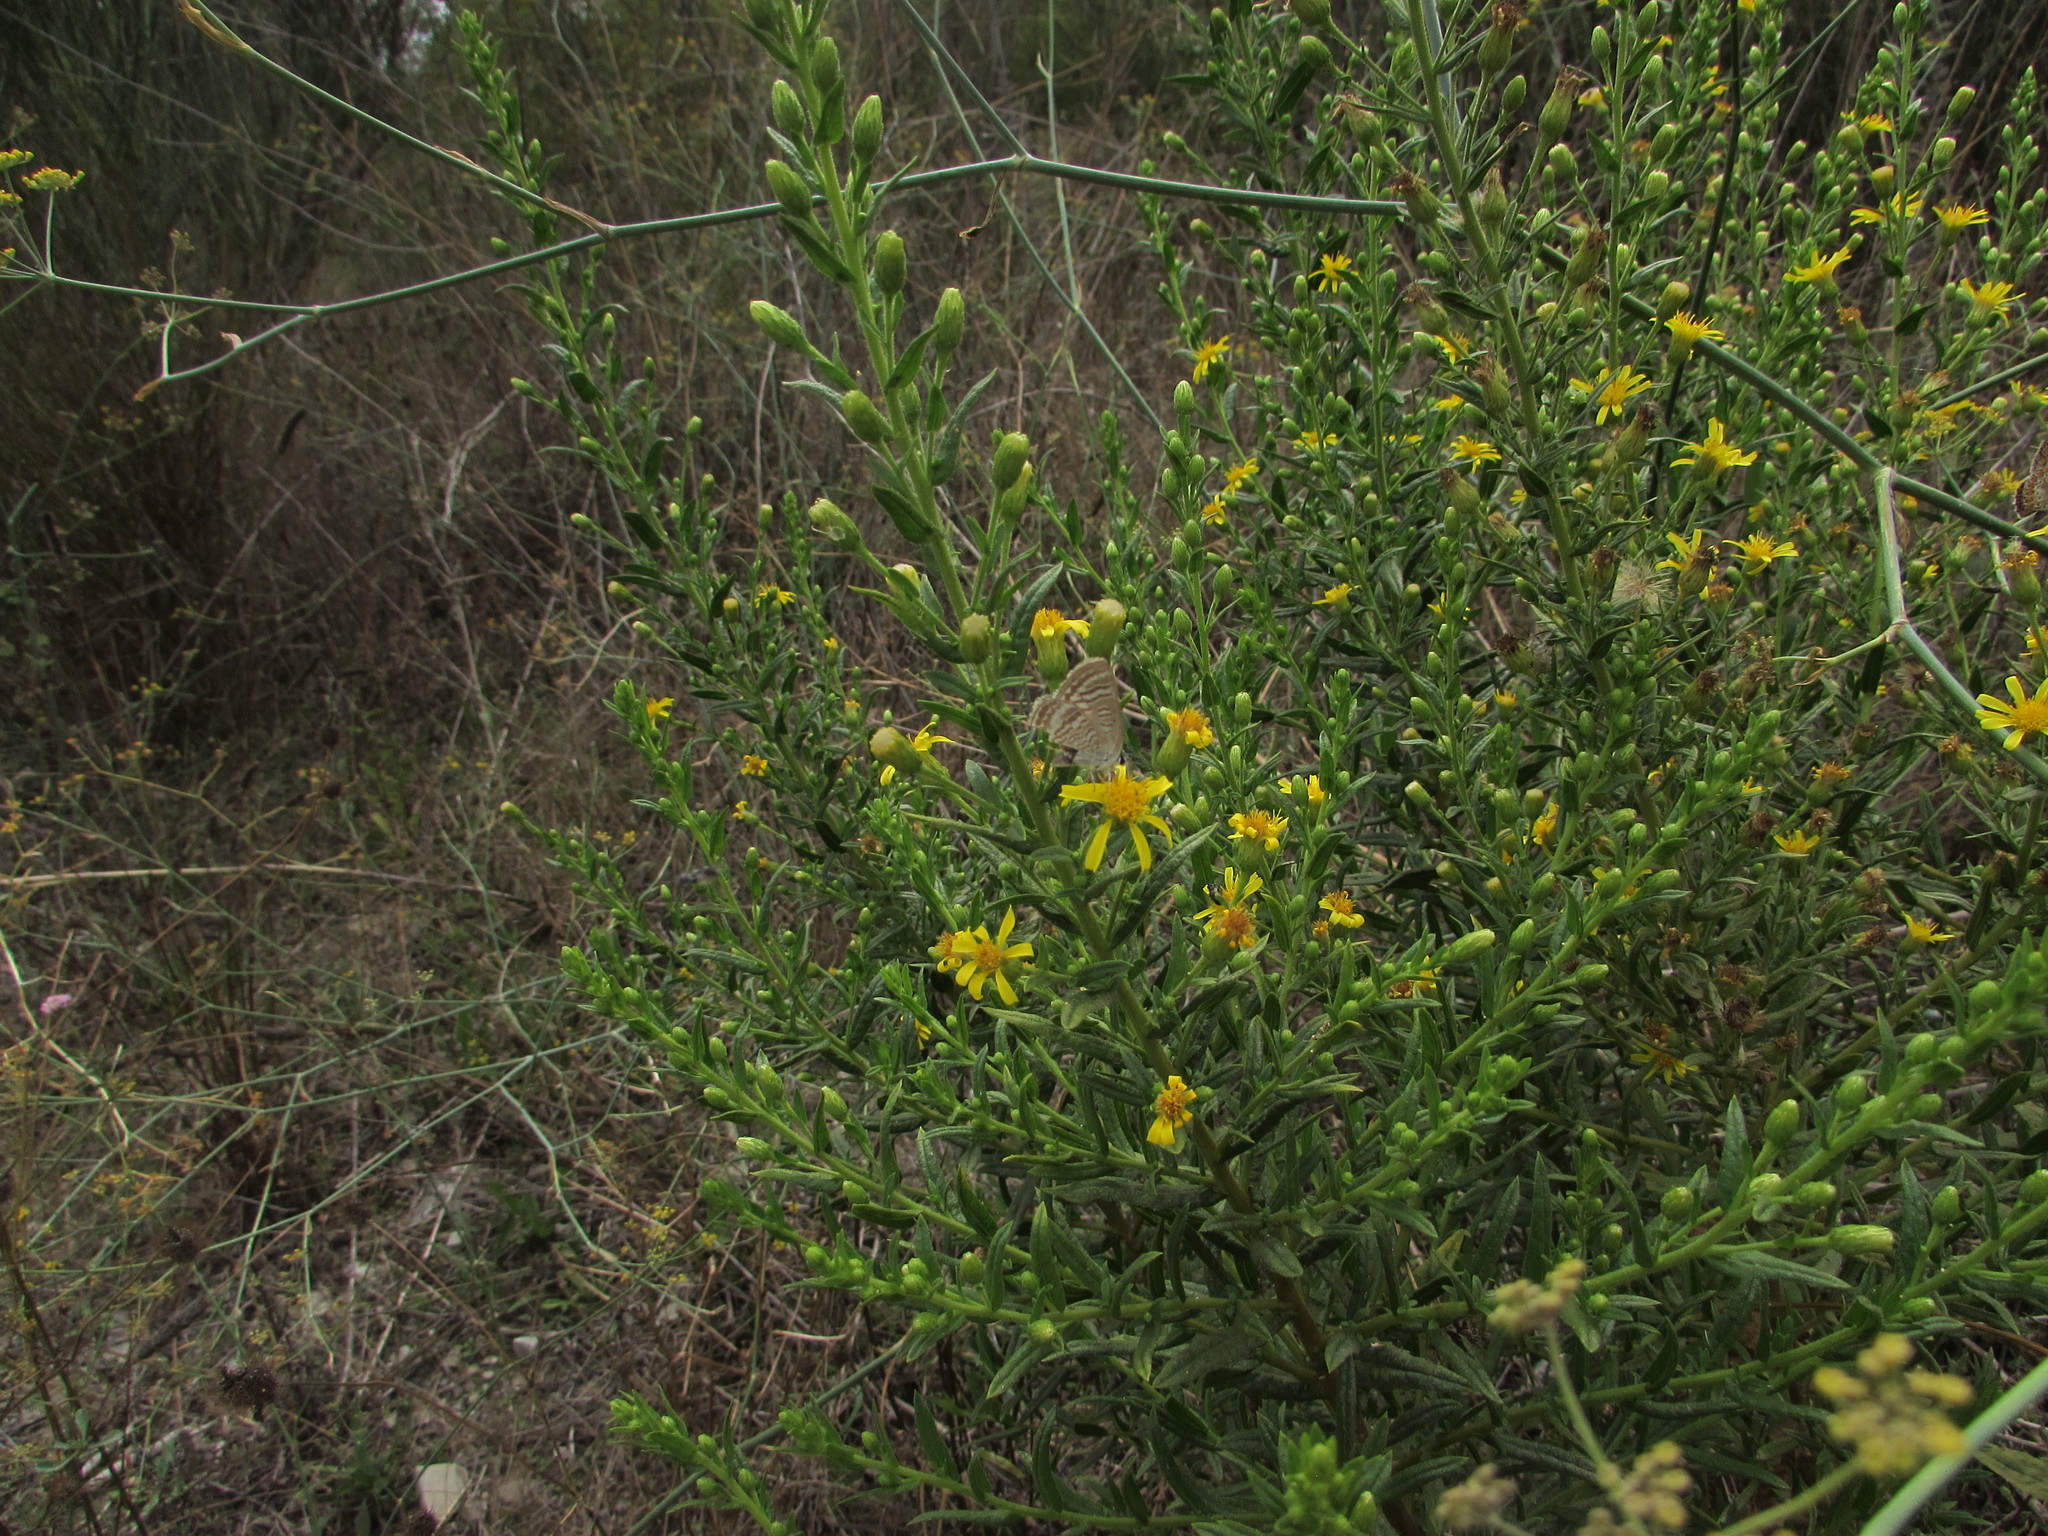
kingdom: Animalia
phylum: Arthropoda
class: Insecta
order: Lepidoptera
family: Lycaenidae
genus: Lampides
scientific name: Lampides boeticus
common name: Long-tailed blue
